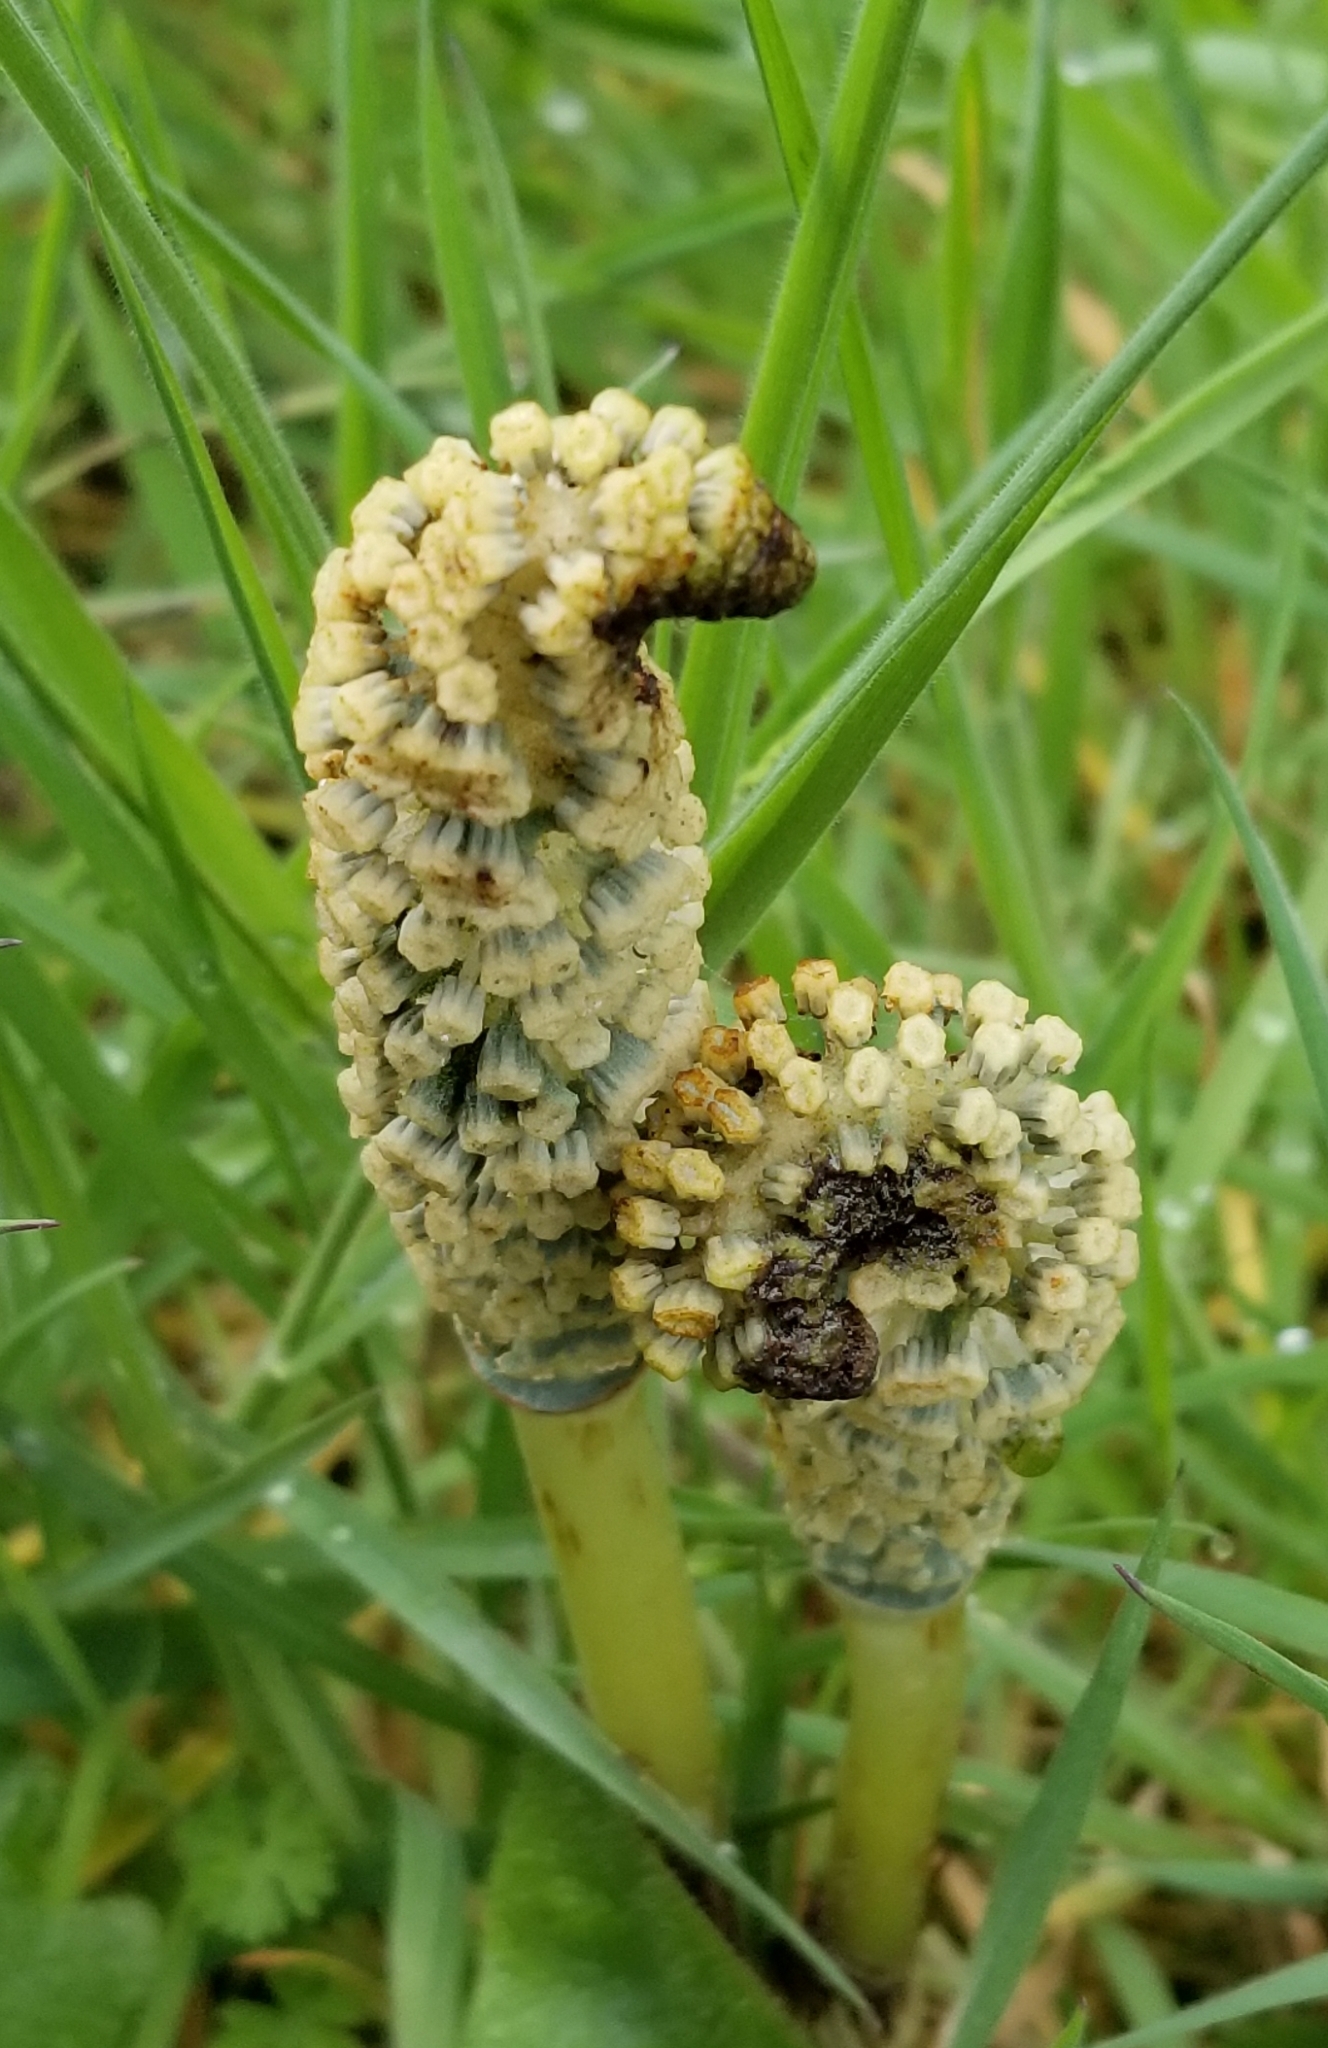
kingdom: Plantae
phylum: Tracheophyta
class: Polypodiopsida
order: Equisetales
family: Equisetaceae
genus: Equisetum
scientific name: Equisetum braunii
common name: Braun's horsetail
